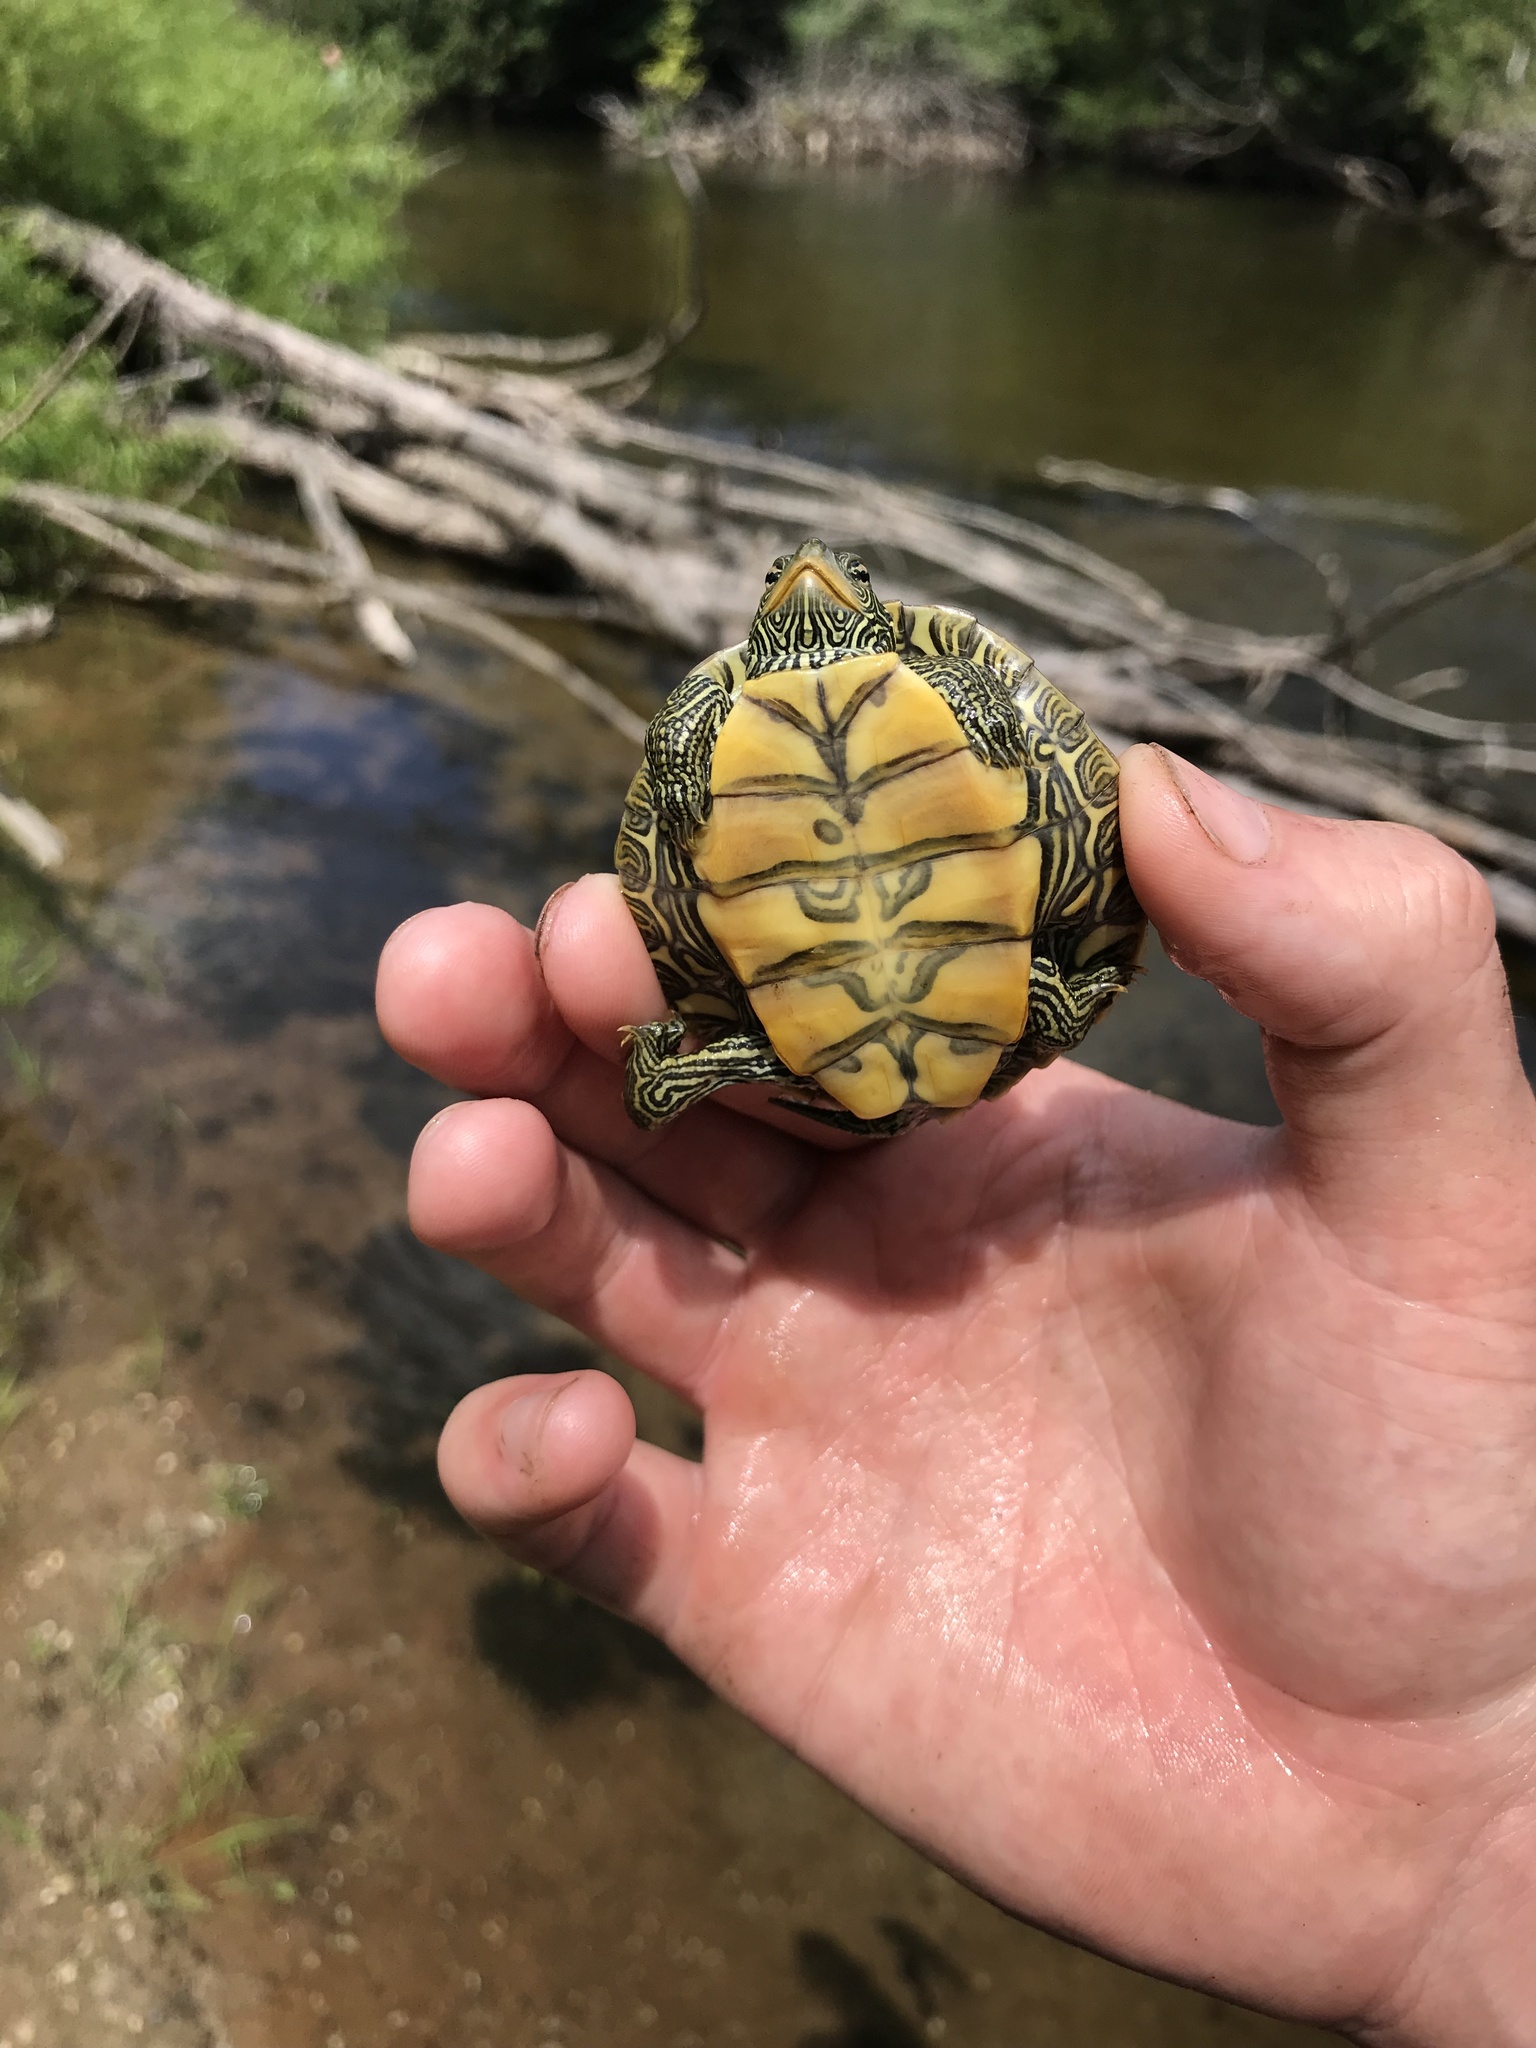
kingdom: Animalia
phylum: Chordata
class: Testudines
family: Emydidae
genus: Graptemys
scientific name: Graptemys geographica
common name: Common map turtle
